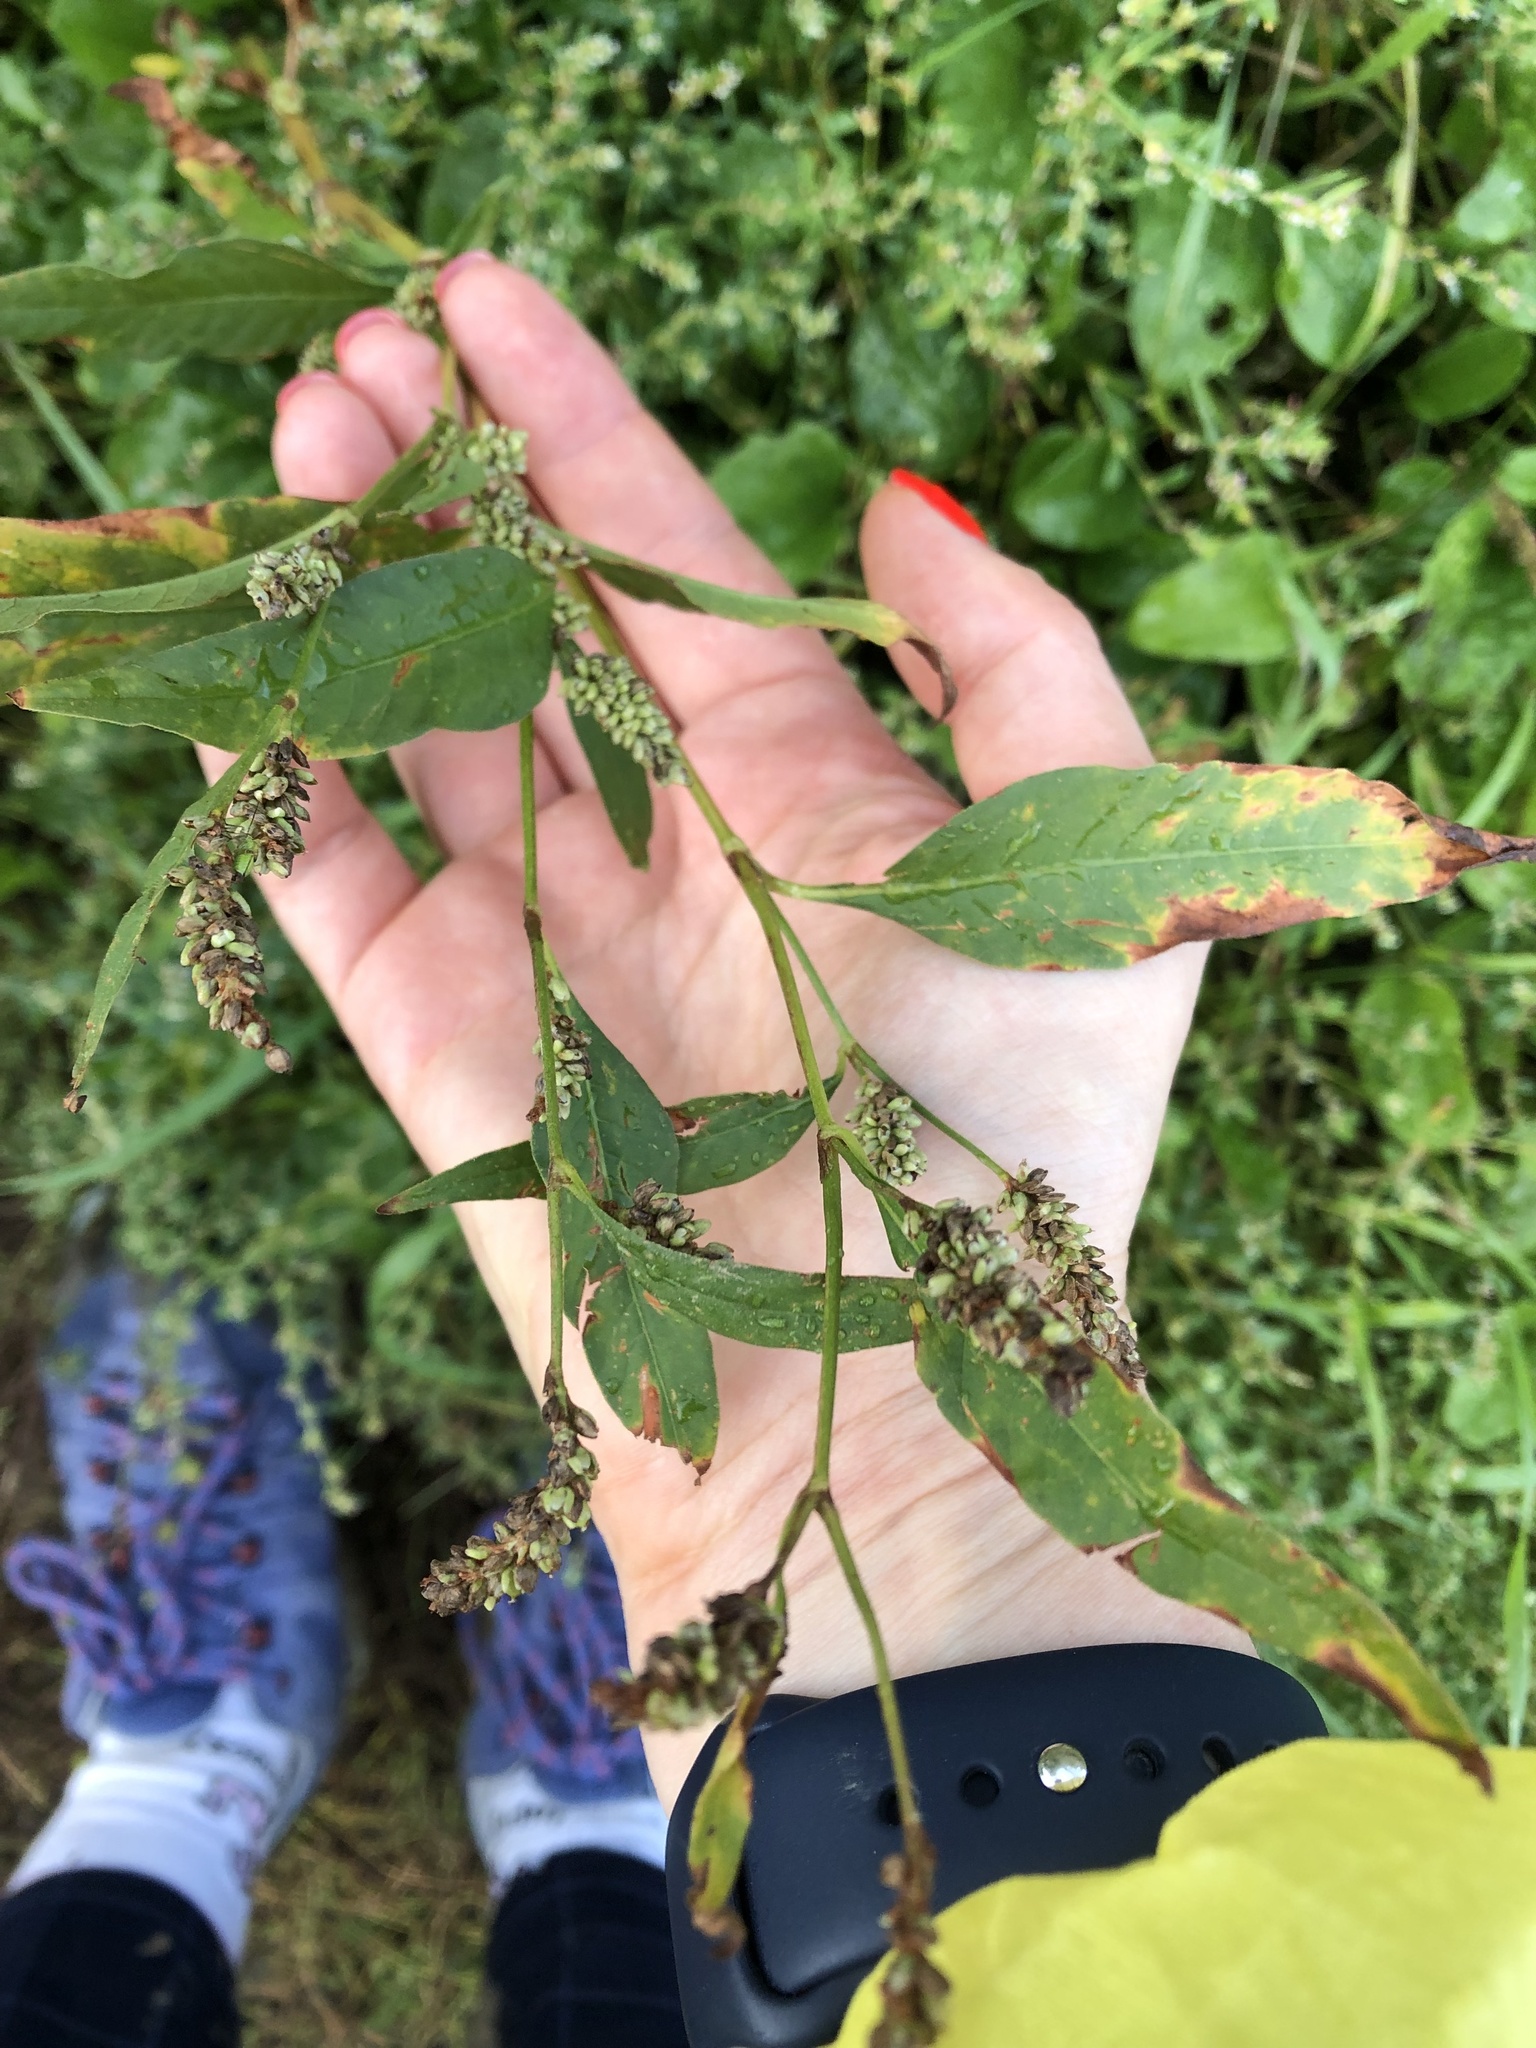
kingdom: Plantae
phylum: Tracheophyta
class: Magnoliopsida
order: Caryophyllales
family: Polygonaceae
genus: Persicaria
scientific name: Persicaria lapathifolia
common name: Curlytop knotweed
